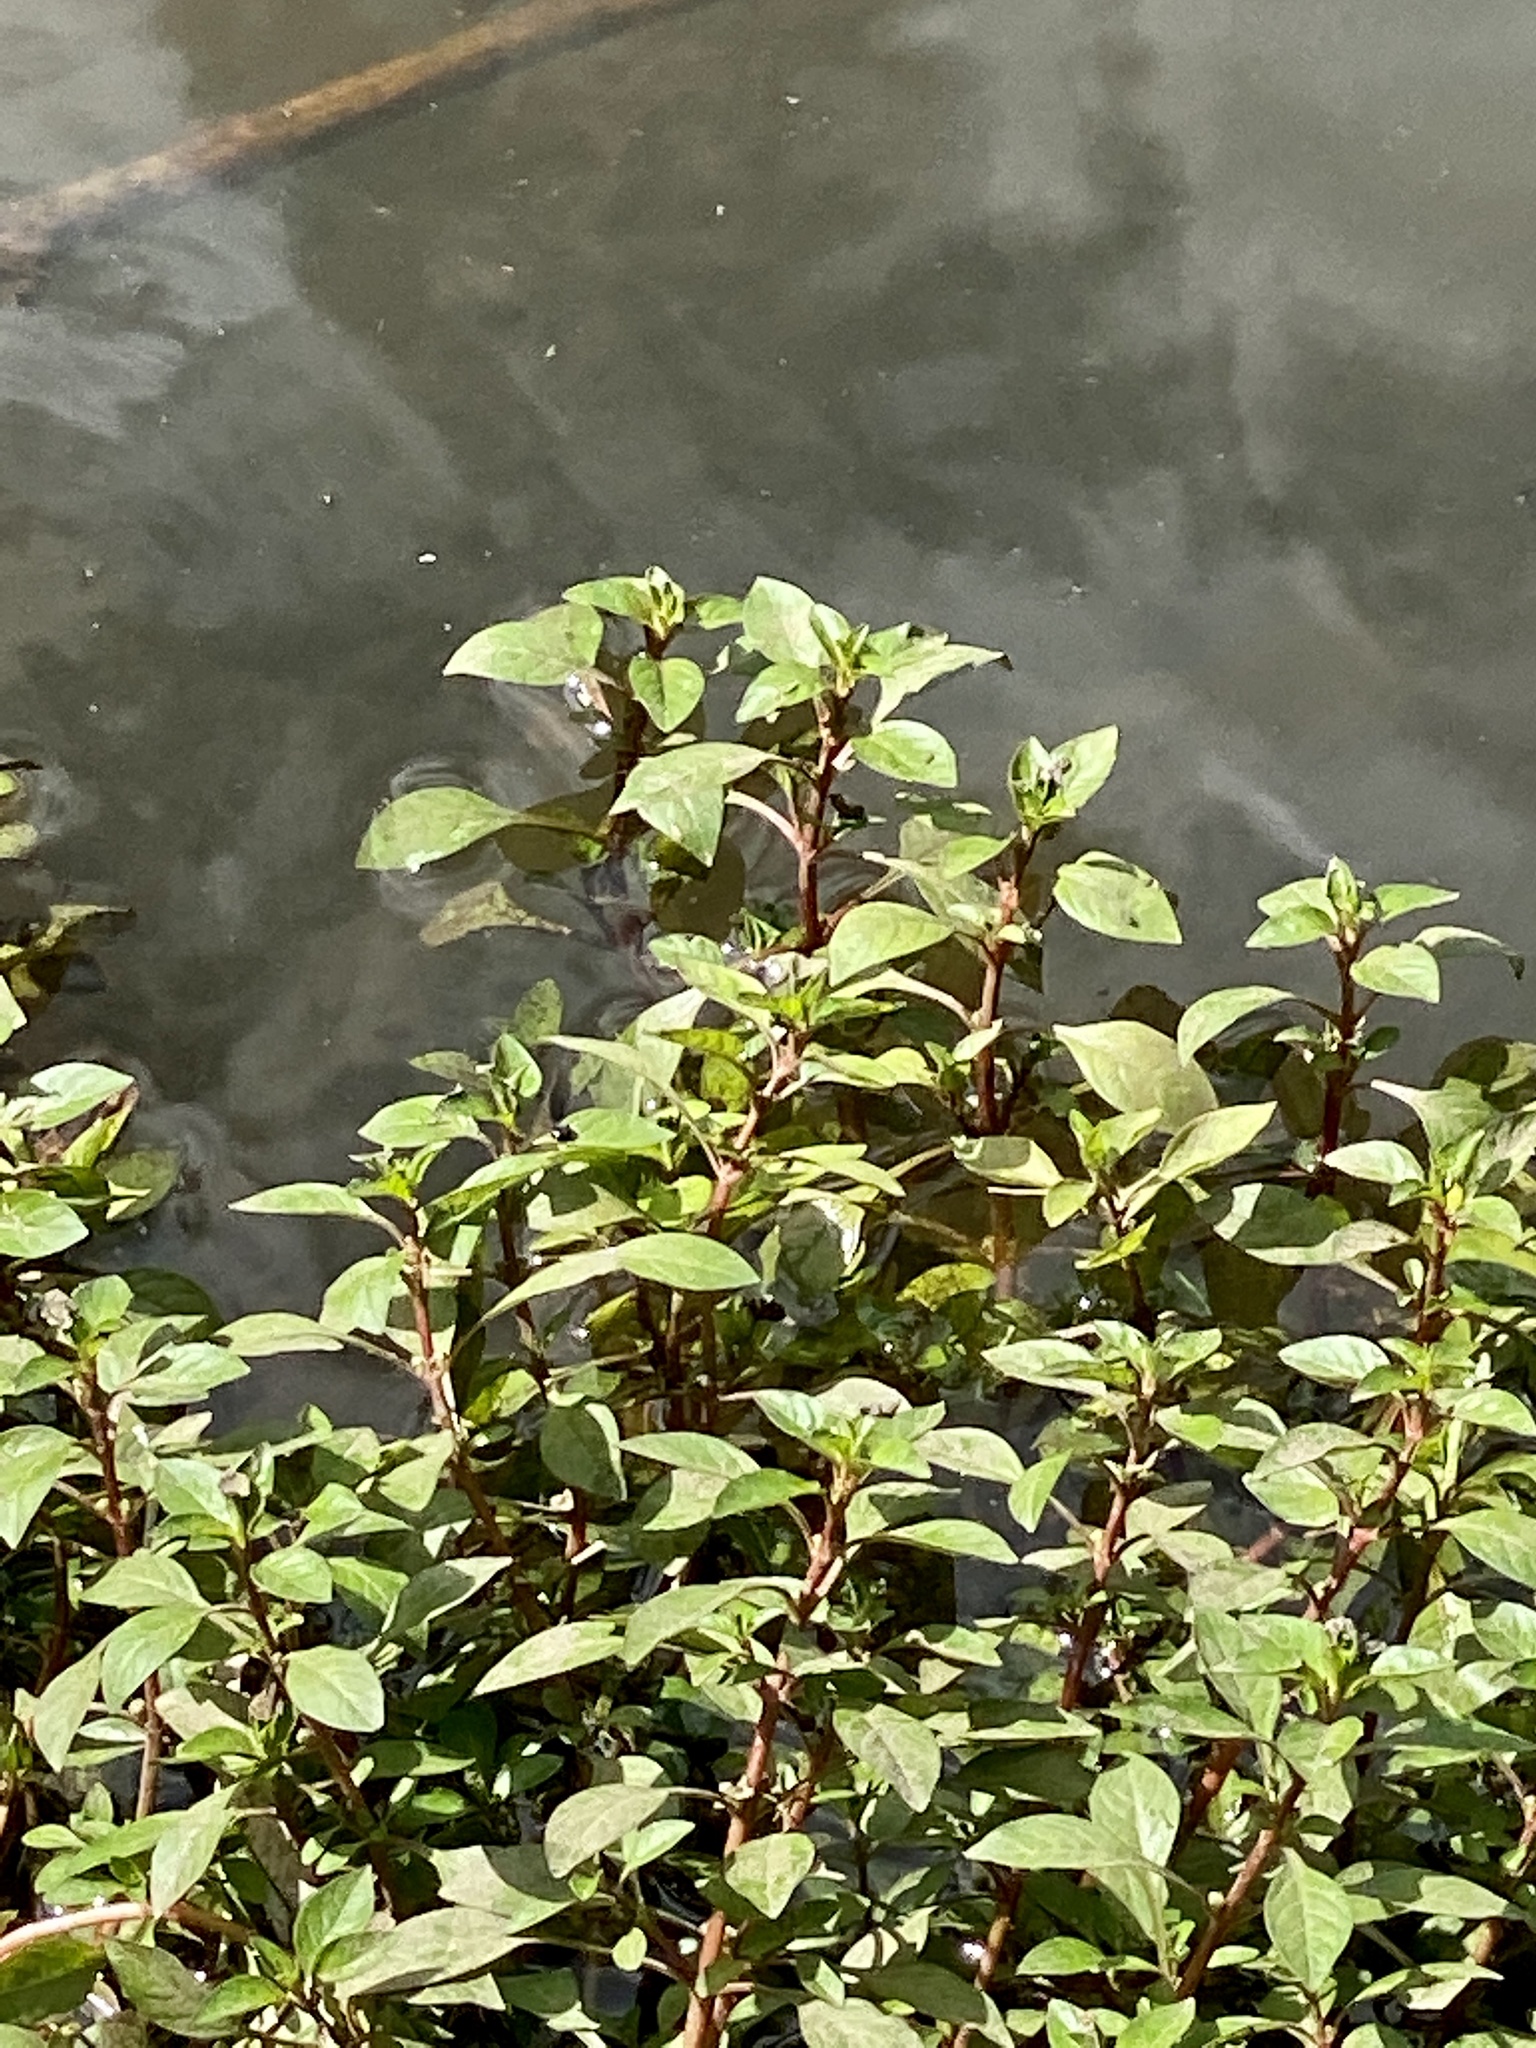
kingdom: Plantae
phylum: Tracheophyta
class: Magnoliopsida
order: Myrtales
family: Onagraceae
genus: Ludwigia
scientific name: Ludwigia palustris
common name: Hampshire-purslane
